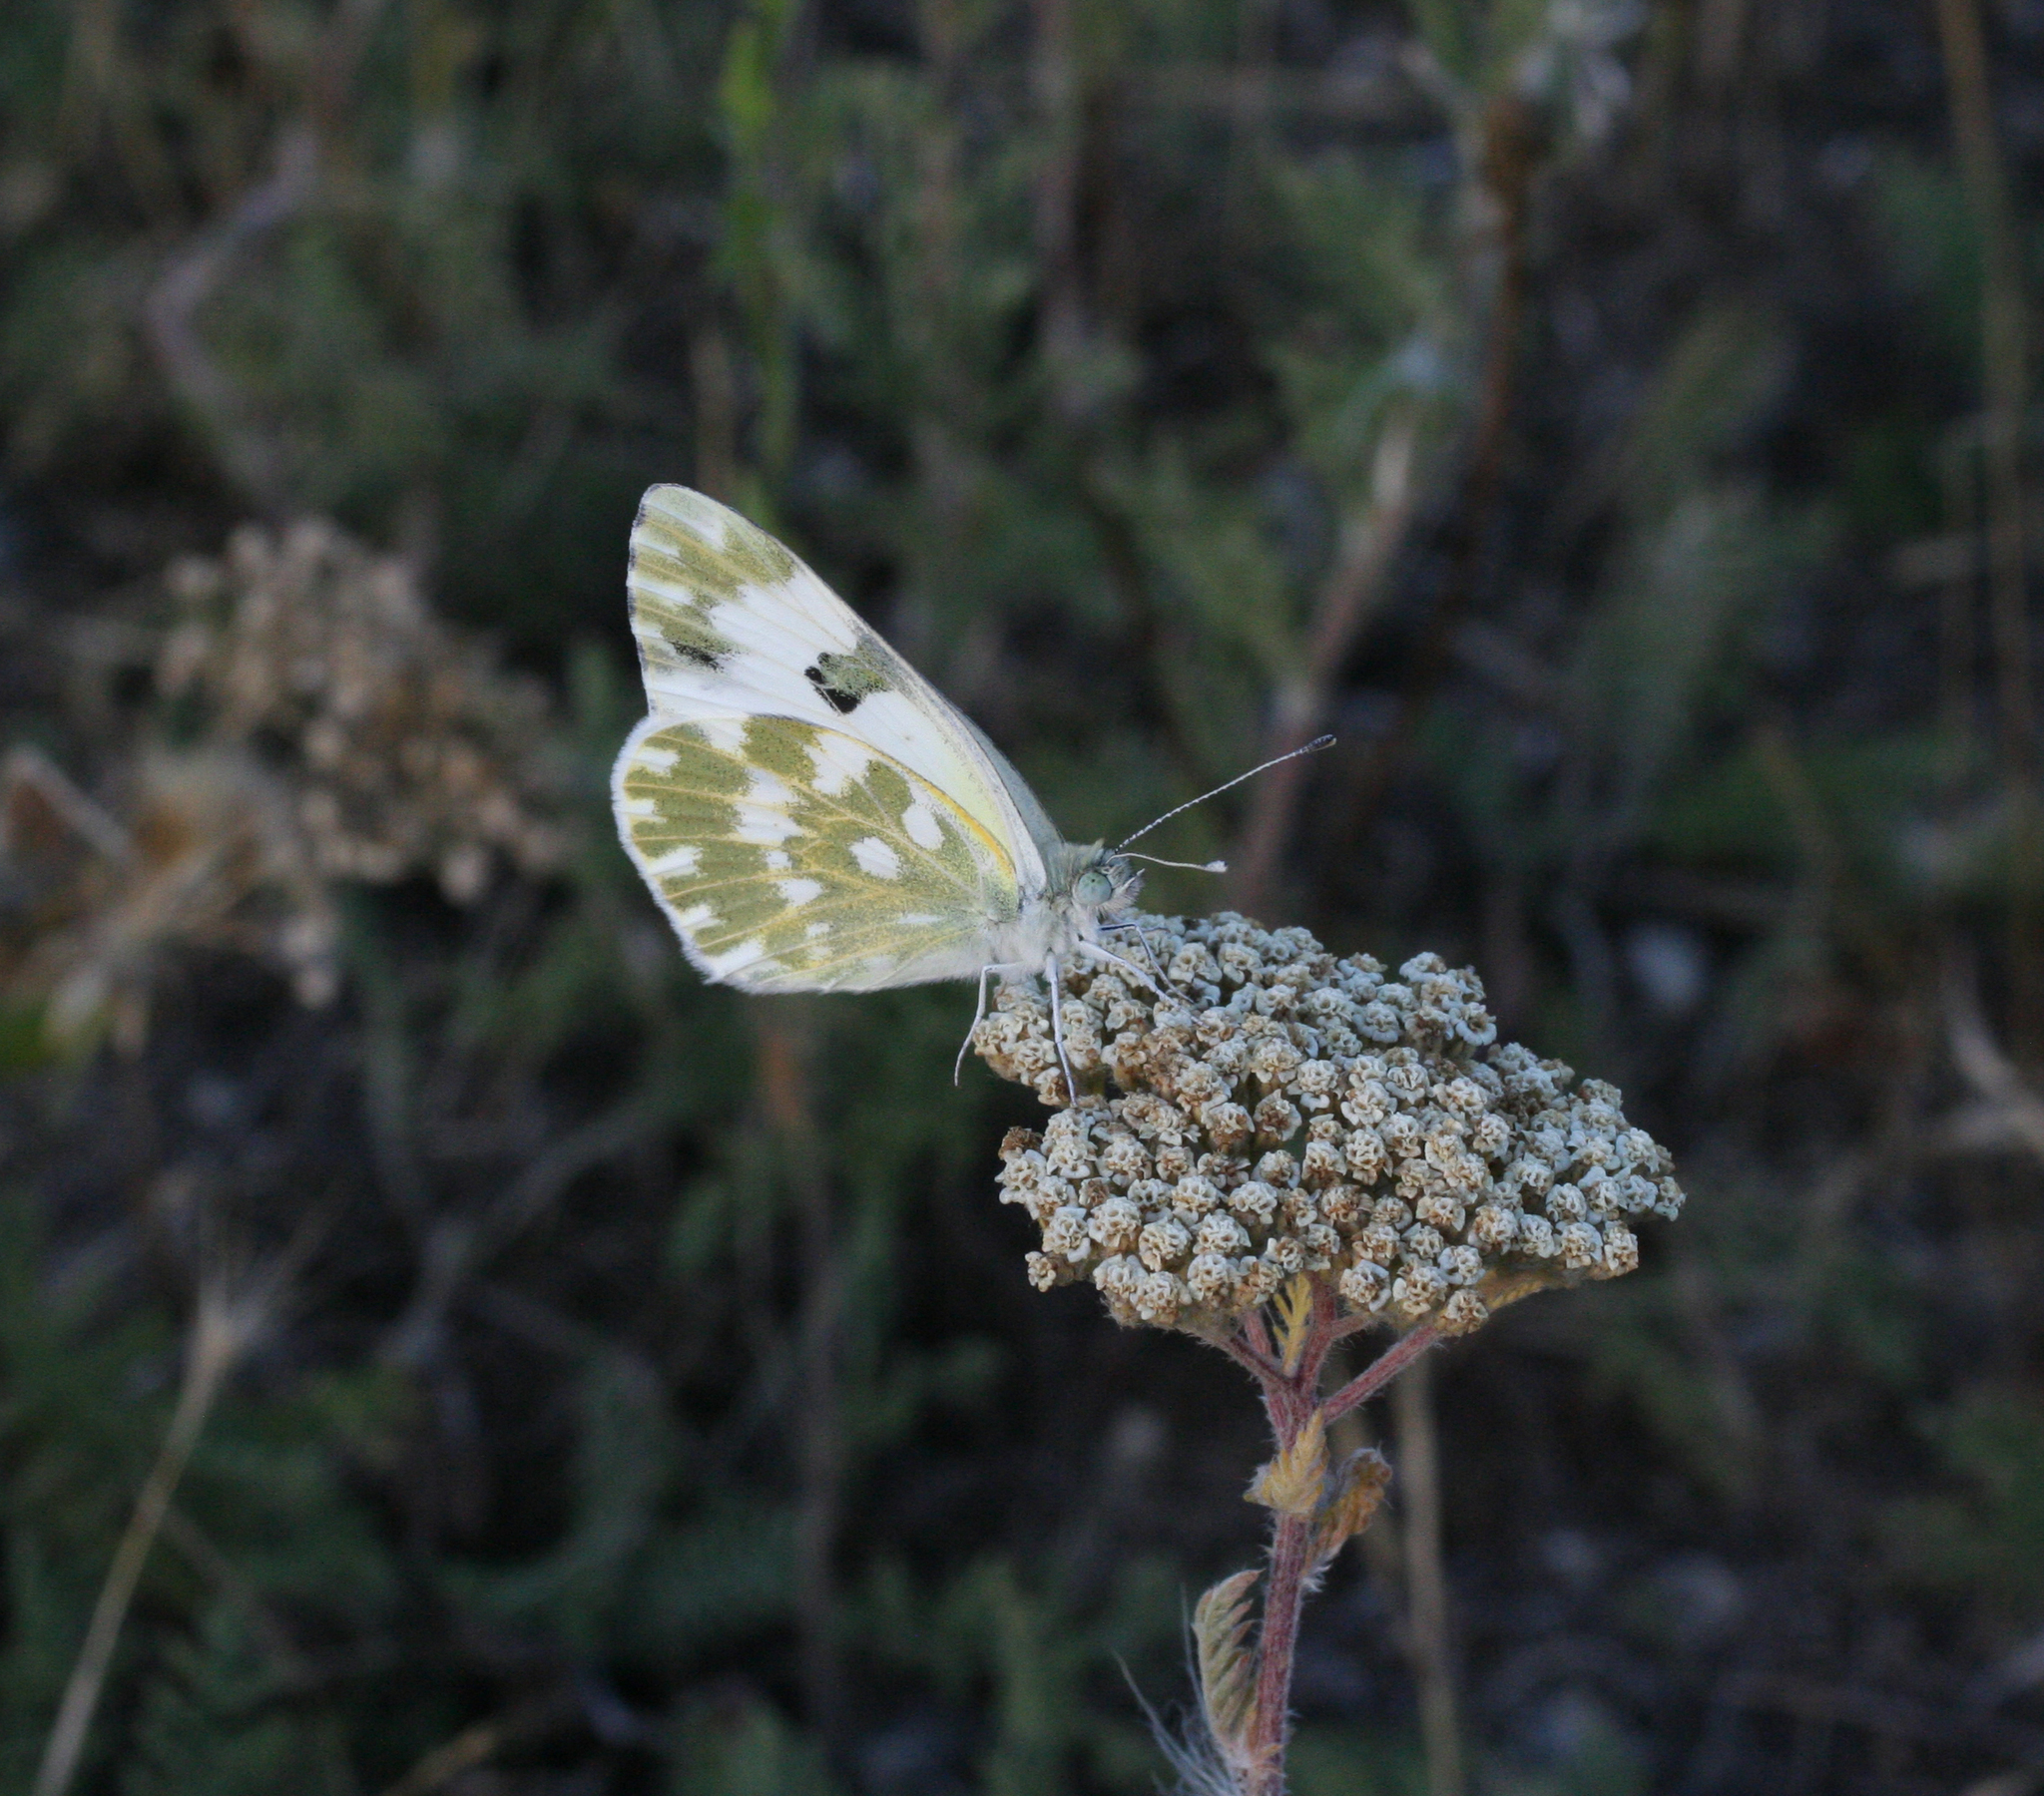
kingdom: Animalia
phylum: Arthropoda
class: Insecta
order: Lepidoptera
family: Pieridae
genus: Pontia
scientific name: Pontia edusa
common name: Eastern bath white
